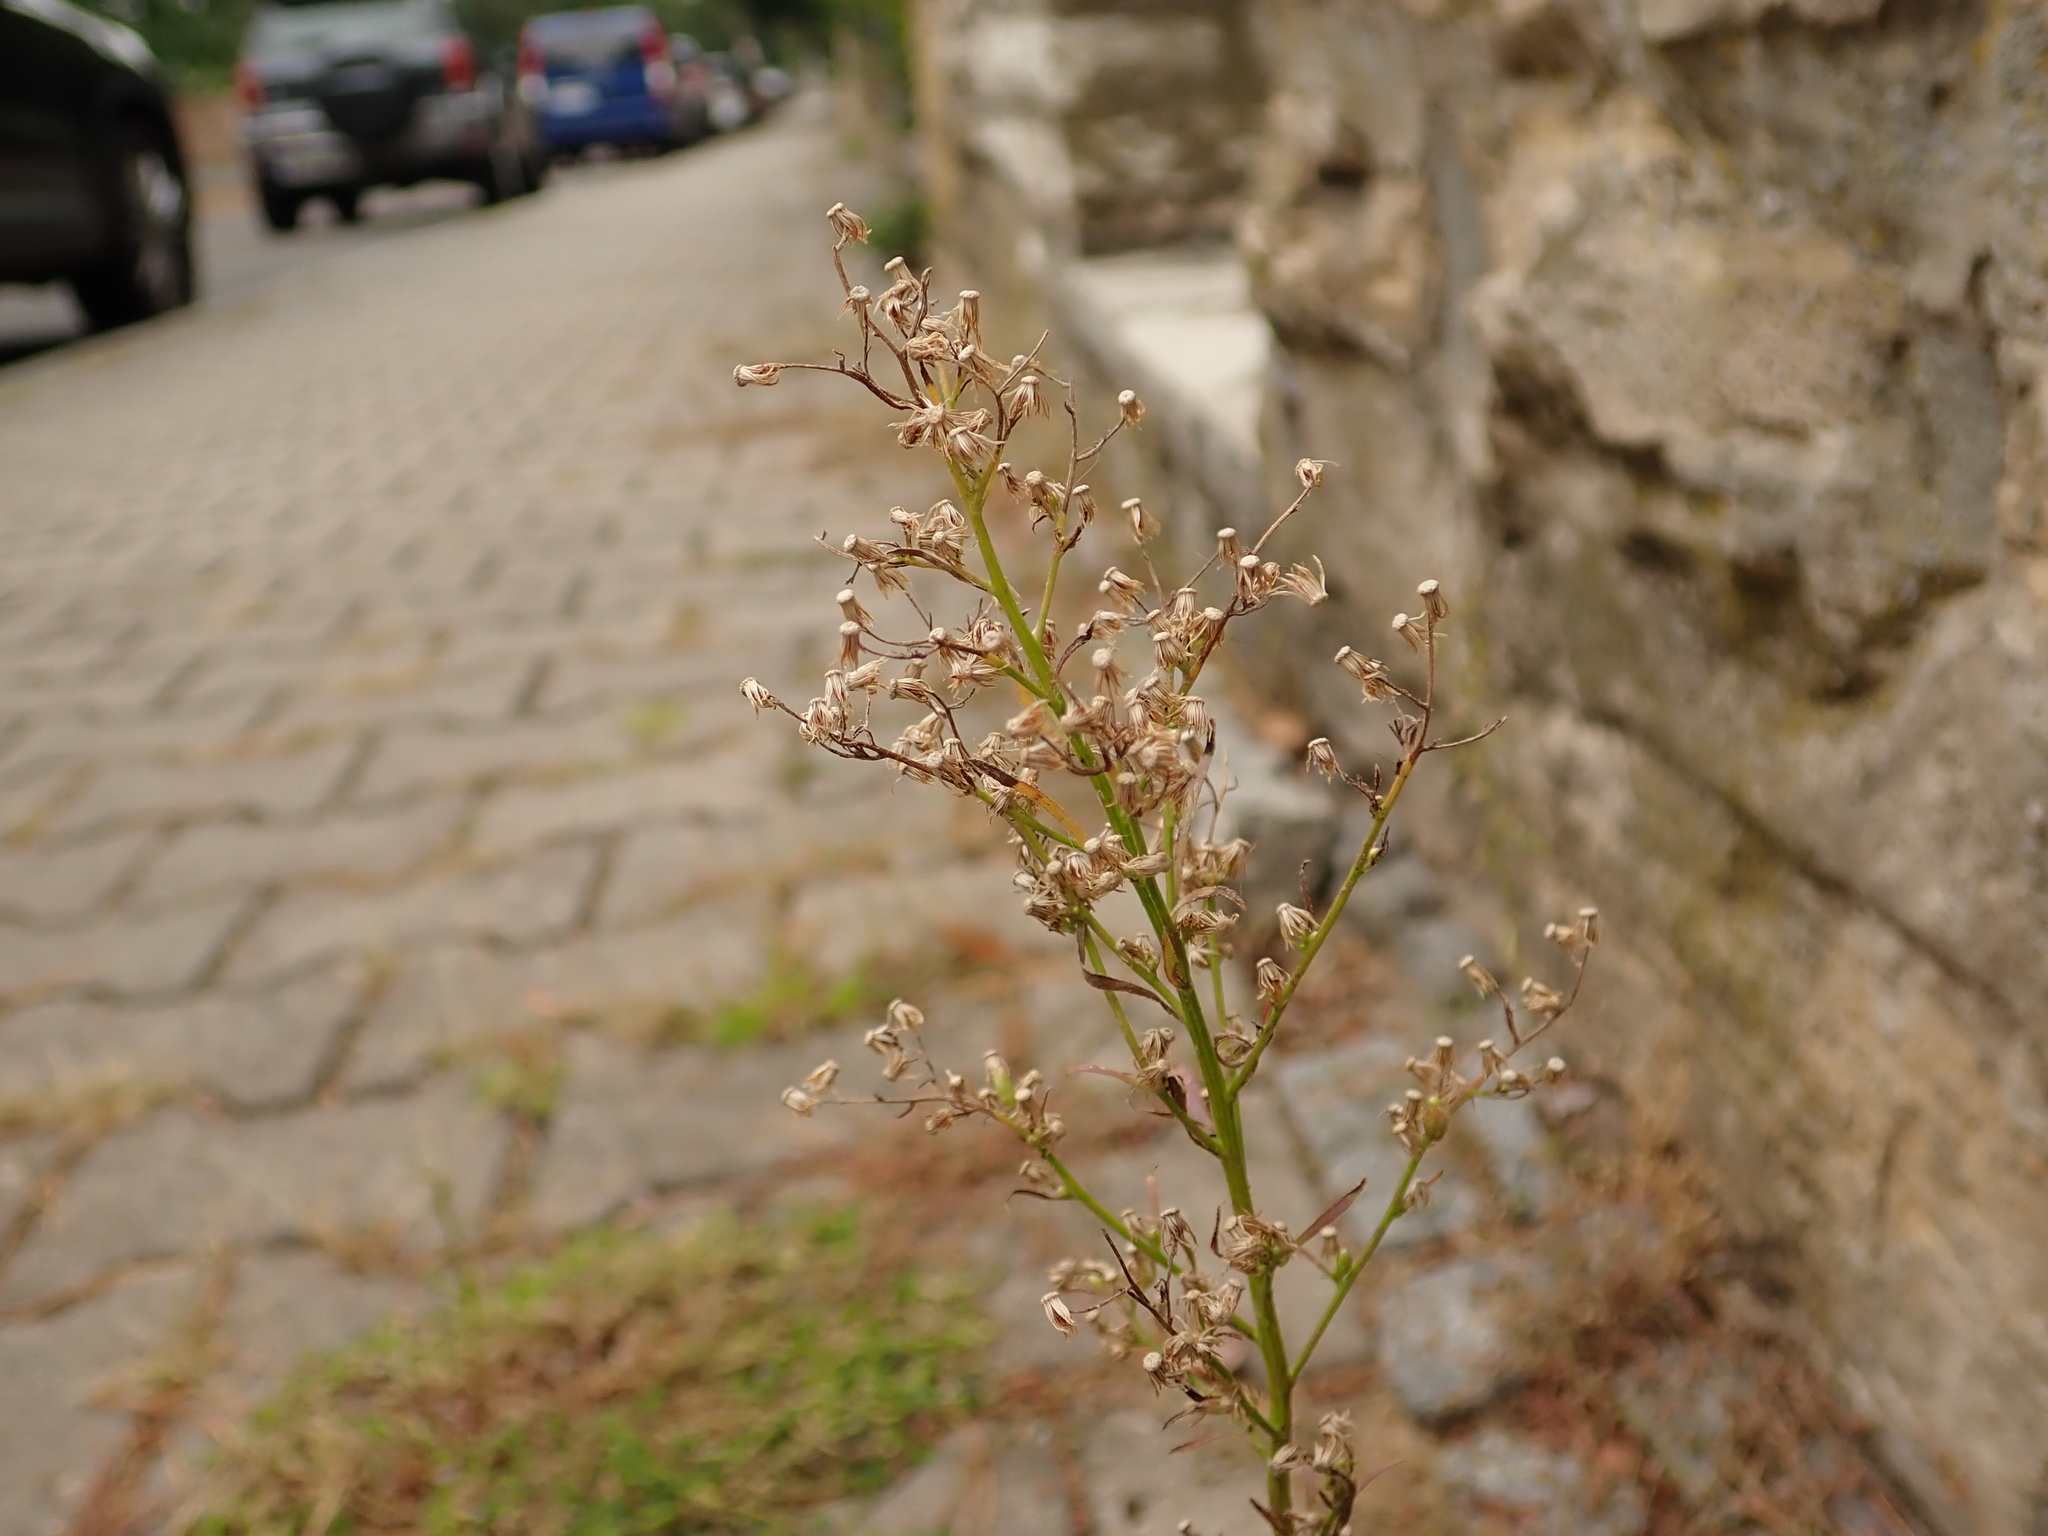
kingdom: Plantae
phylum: Tracheophyta
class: Magnoliopsida
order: Asterales
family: Asteraceae
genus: Erigeron
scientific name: Erigeron canadensis
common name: Canadian fleabane
